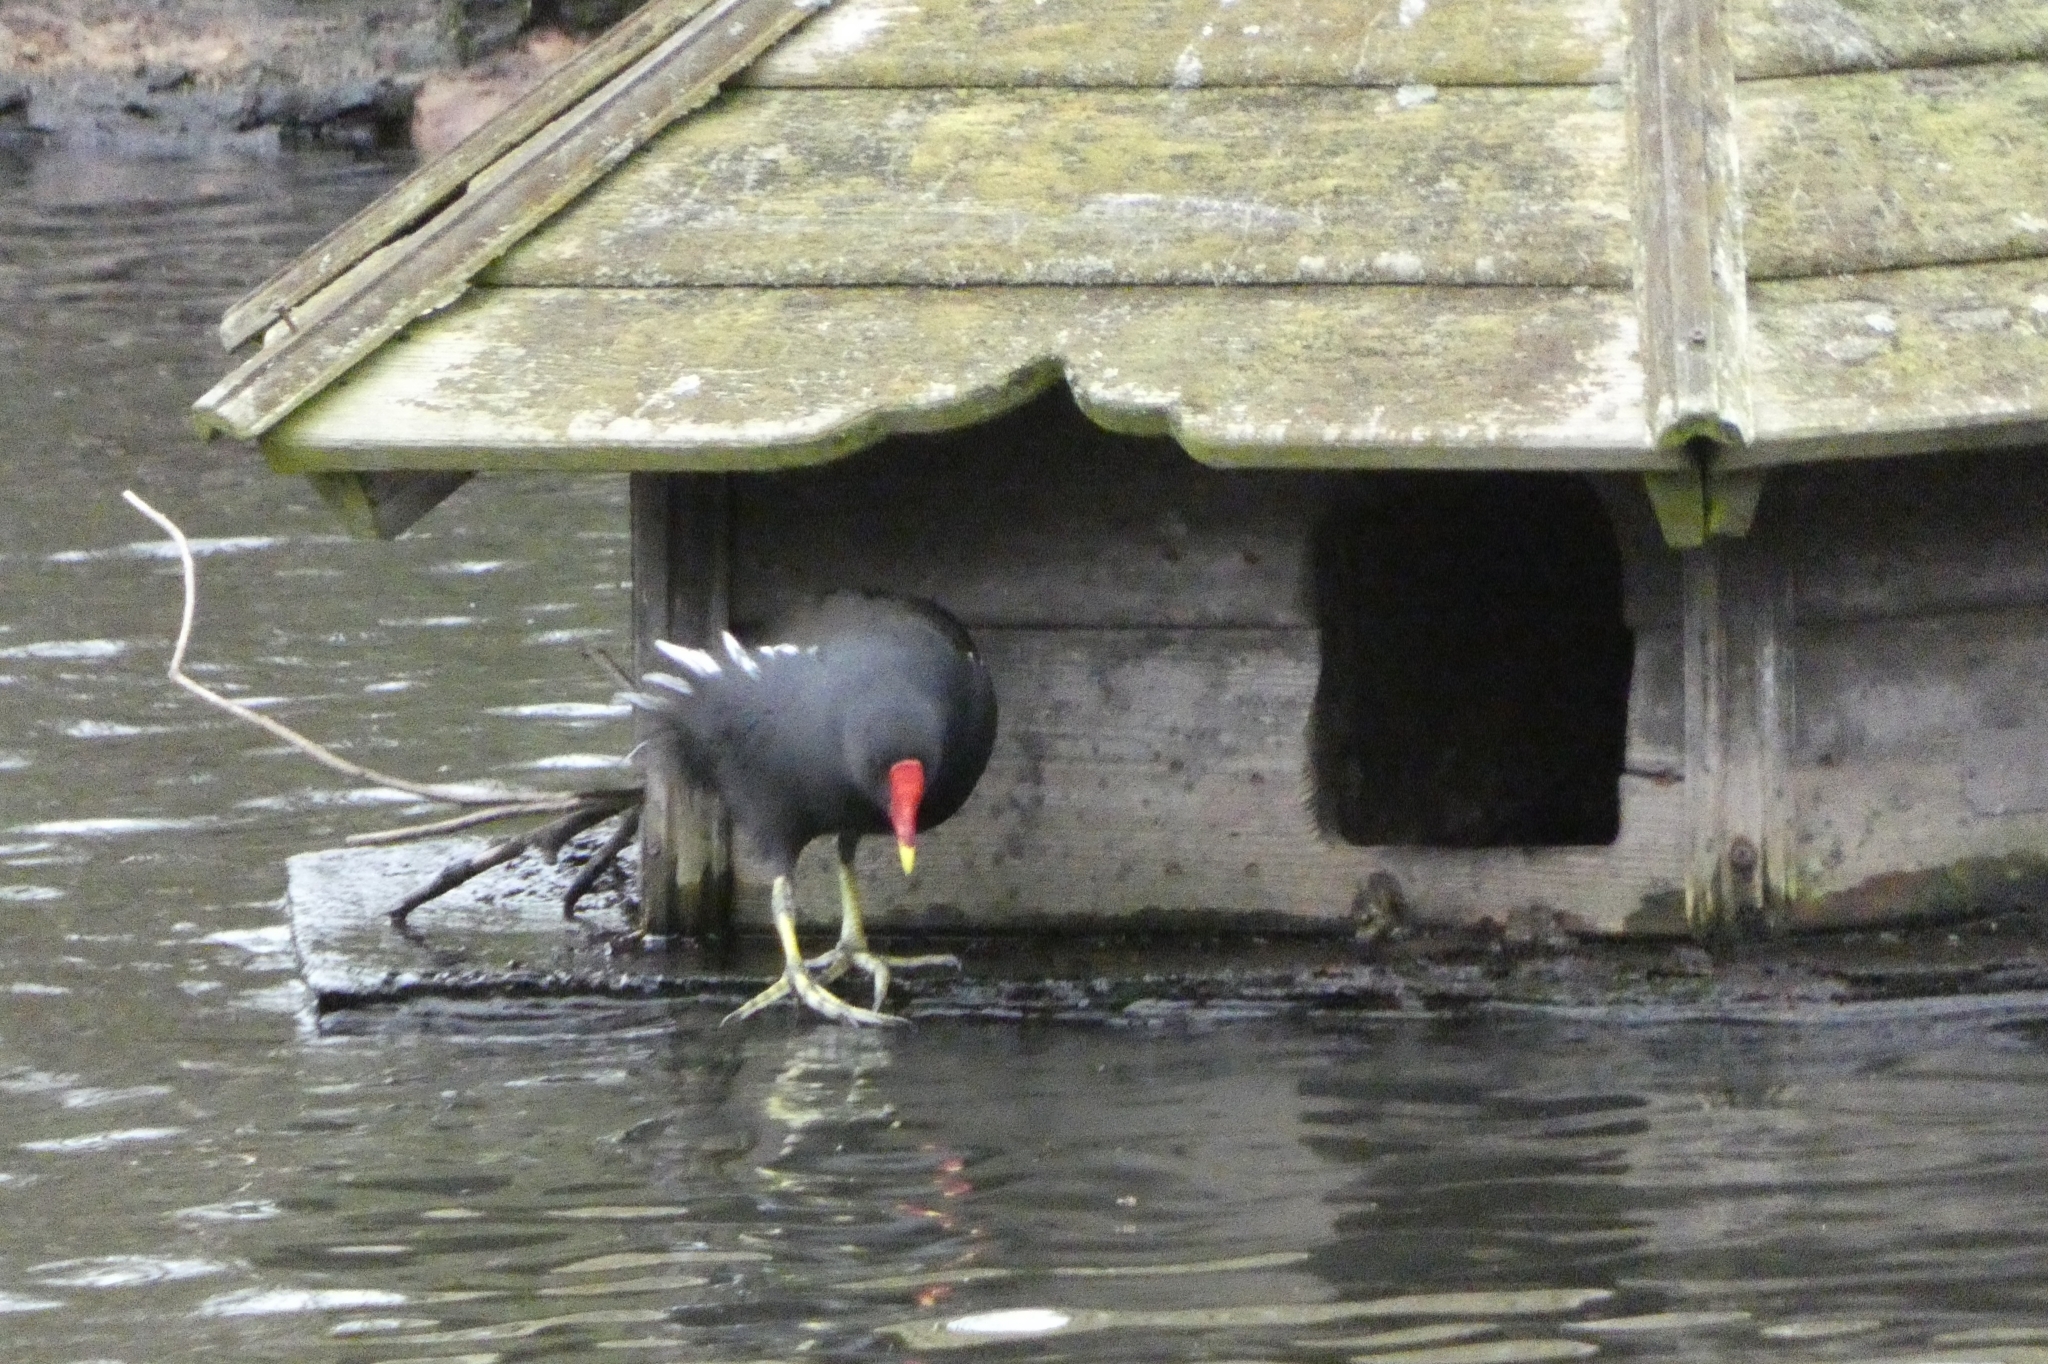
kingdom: Animalia
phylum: Chordata
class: Aves
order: Gruiformes
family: Rallidae
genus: Gallinula
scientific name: Gallinula chloropus
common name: Common moorhen
